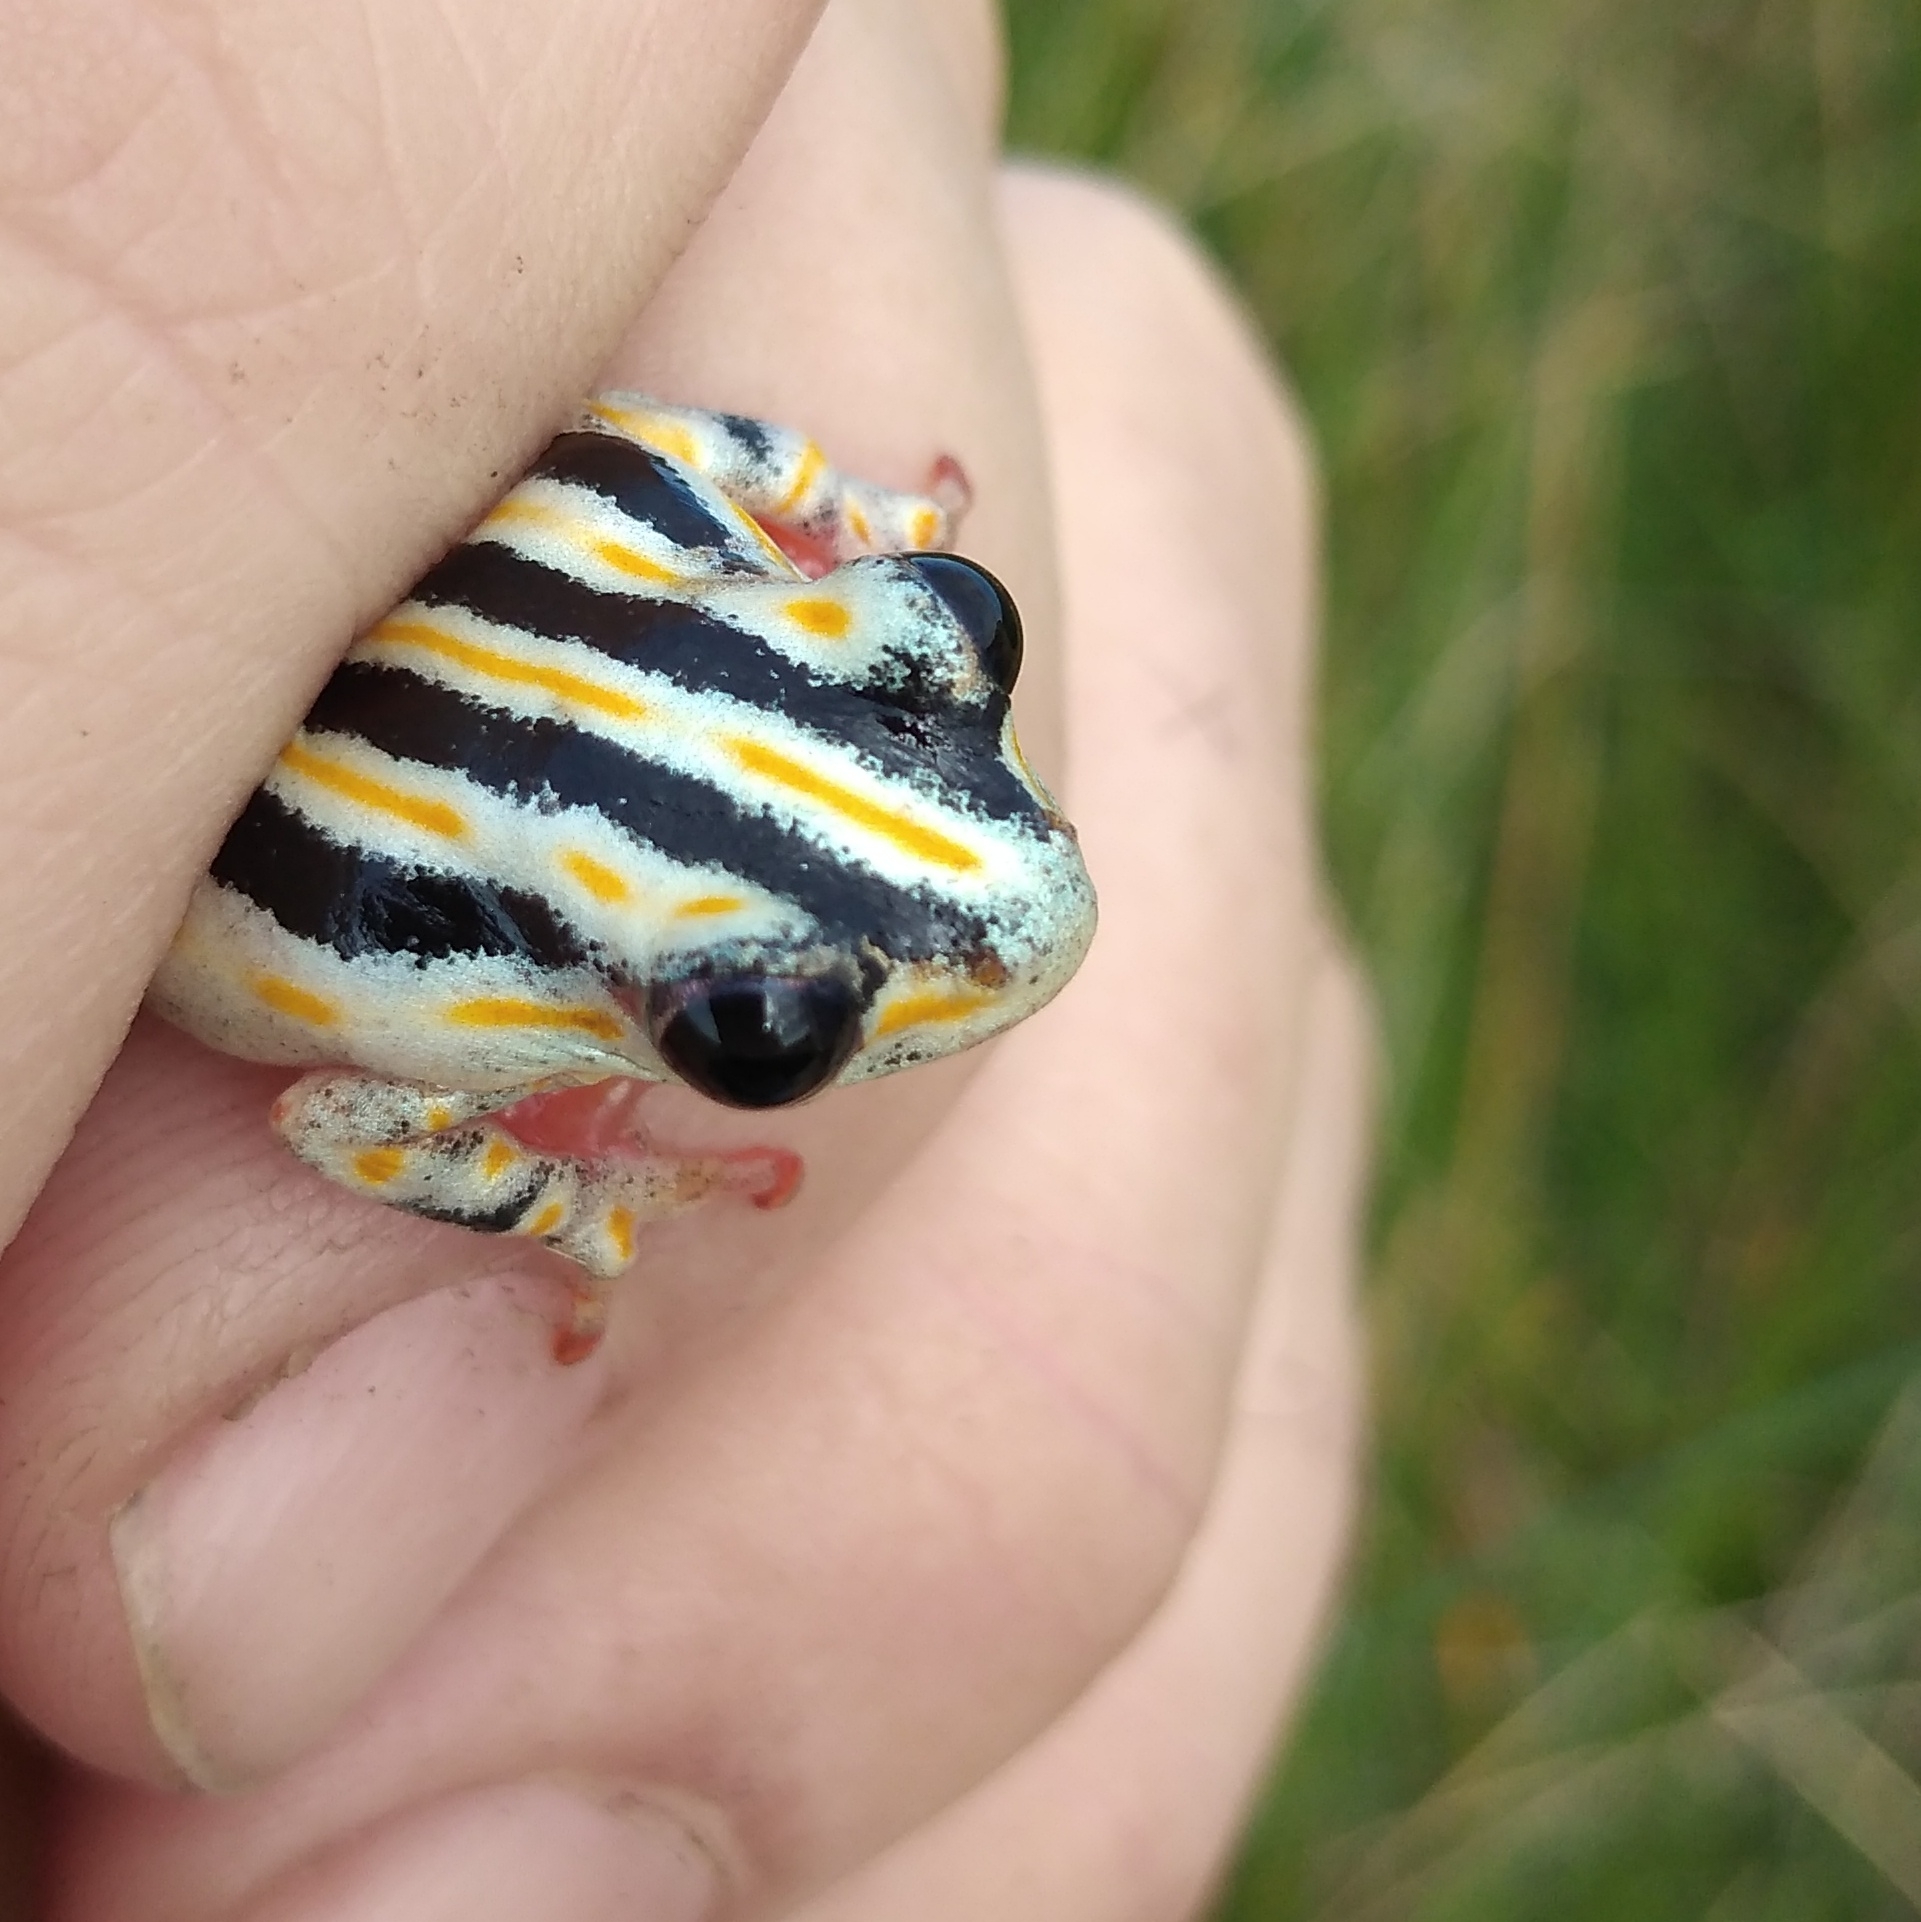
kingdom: Animalia
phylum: Chordata
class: Amphibia
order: Anura
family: Hyperoliidae
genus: Hyperolius
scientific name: Hyperolius marmoratus
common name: Painted reed frog
